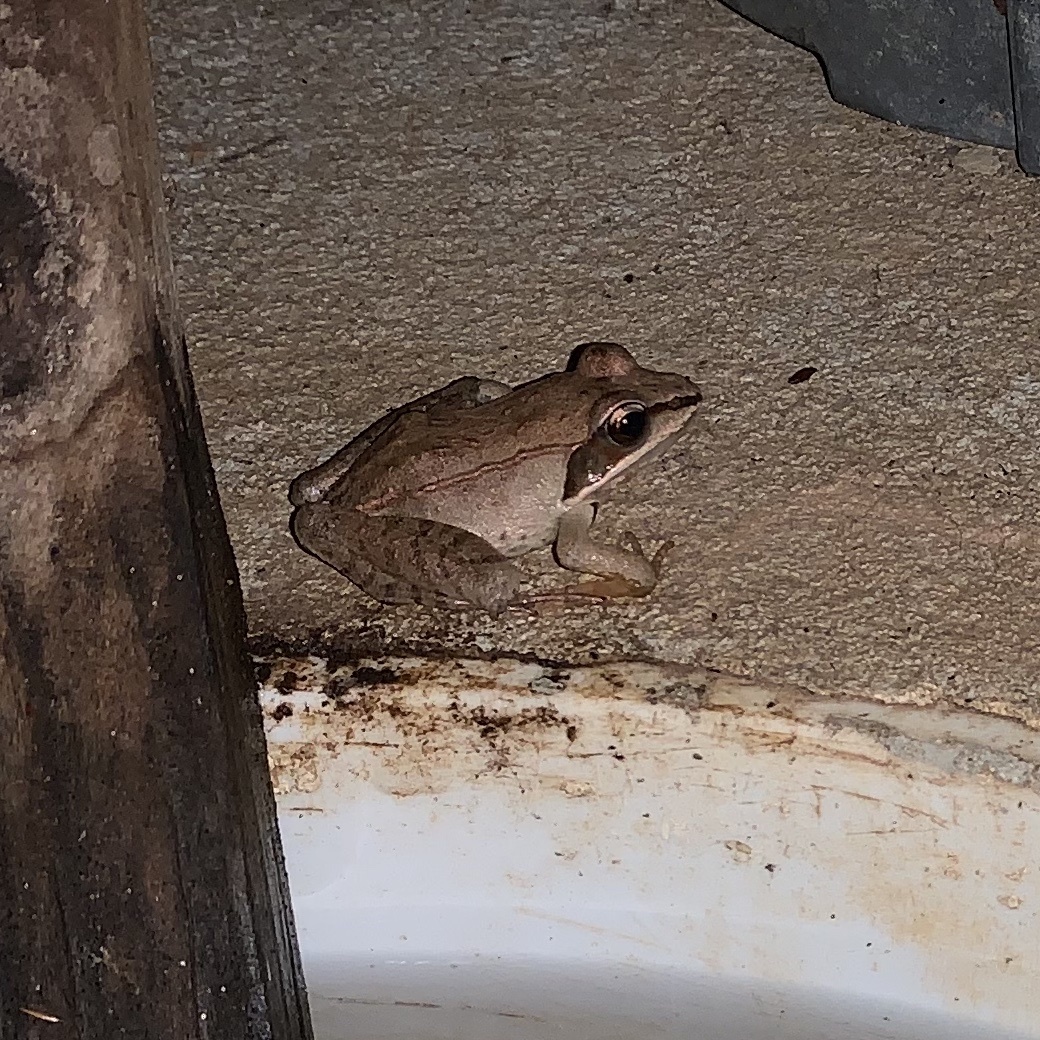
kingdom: Animalia
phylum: Chordata
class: Amphibia
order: Anura
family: Ranidae
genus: Lithobates
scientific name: Lithobates sylvaticus
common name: Wood frog
